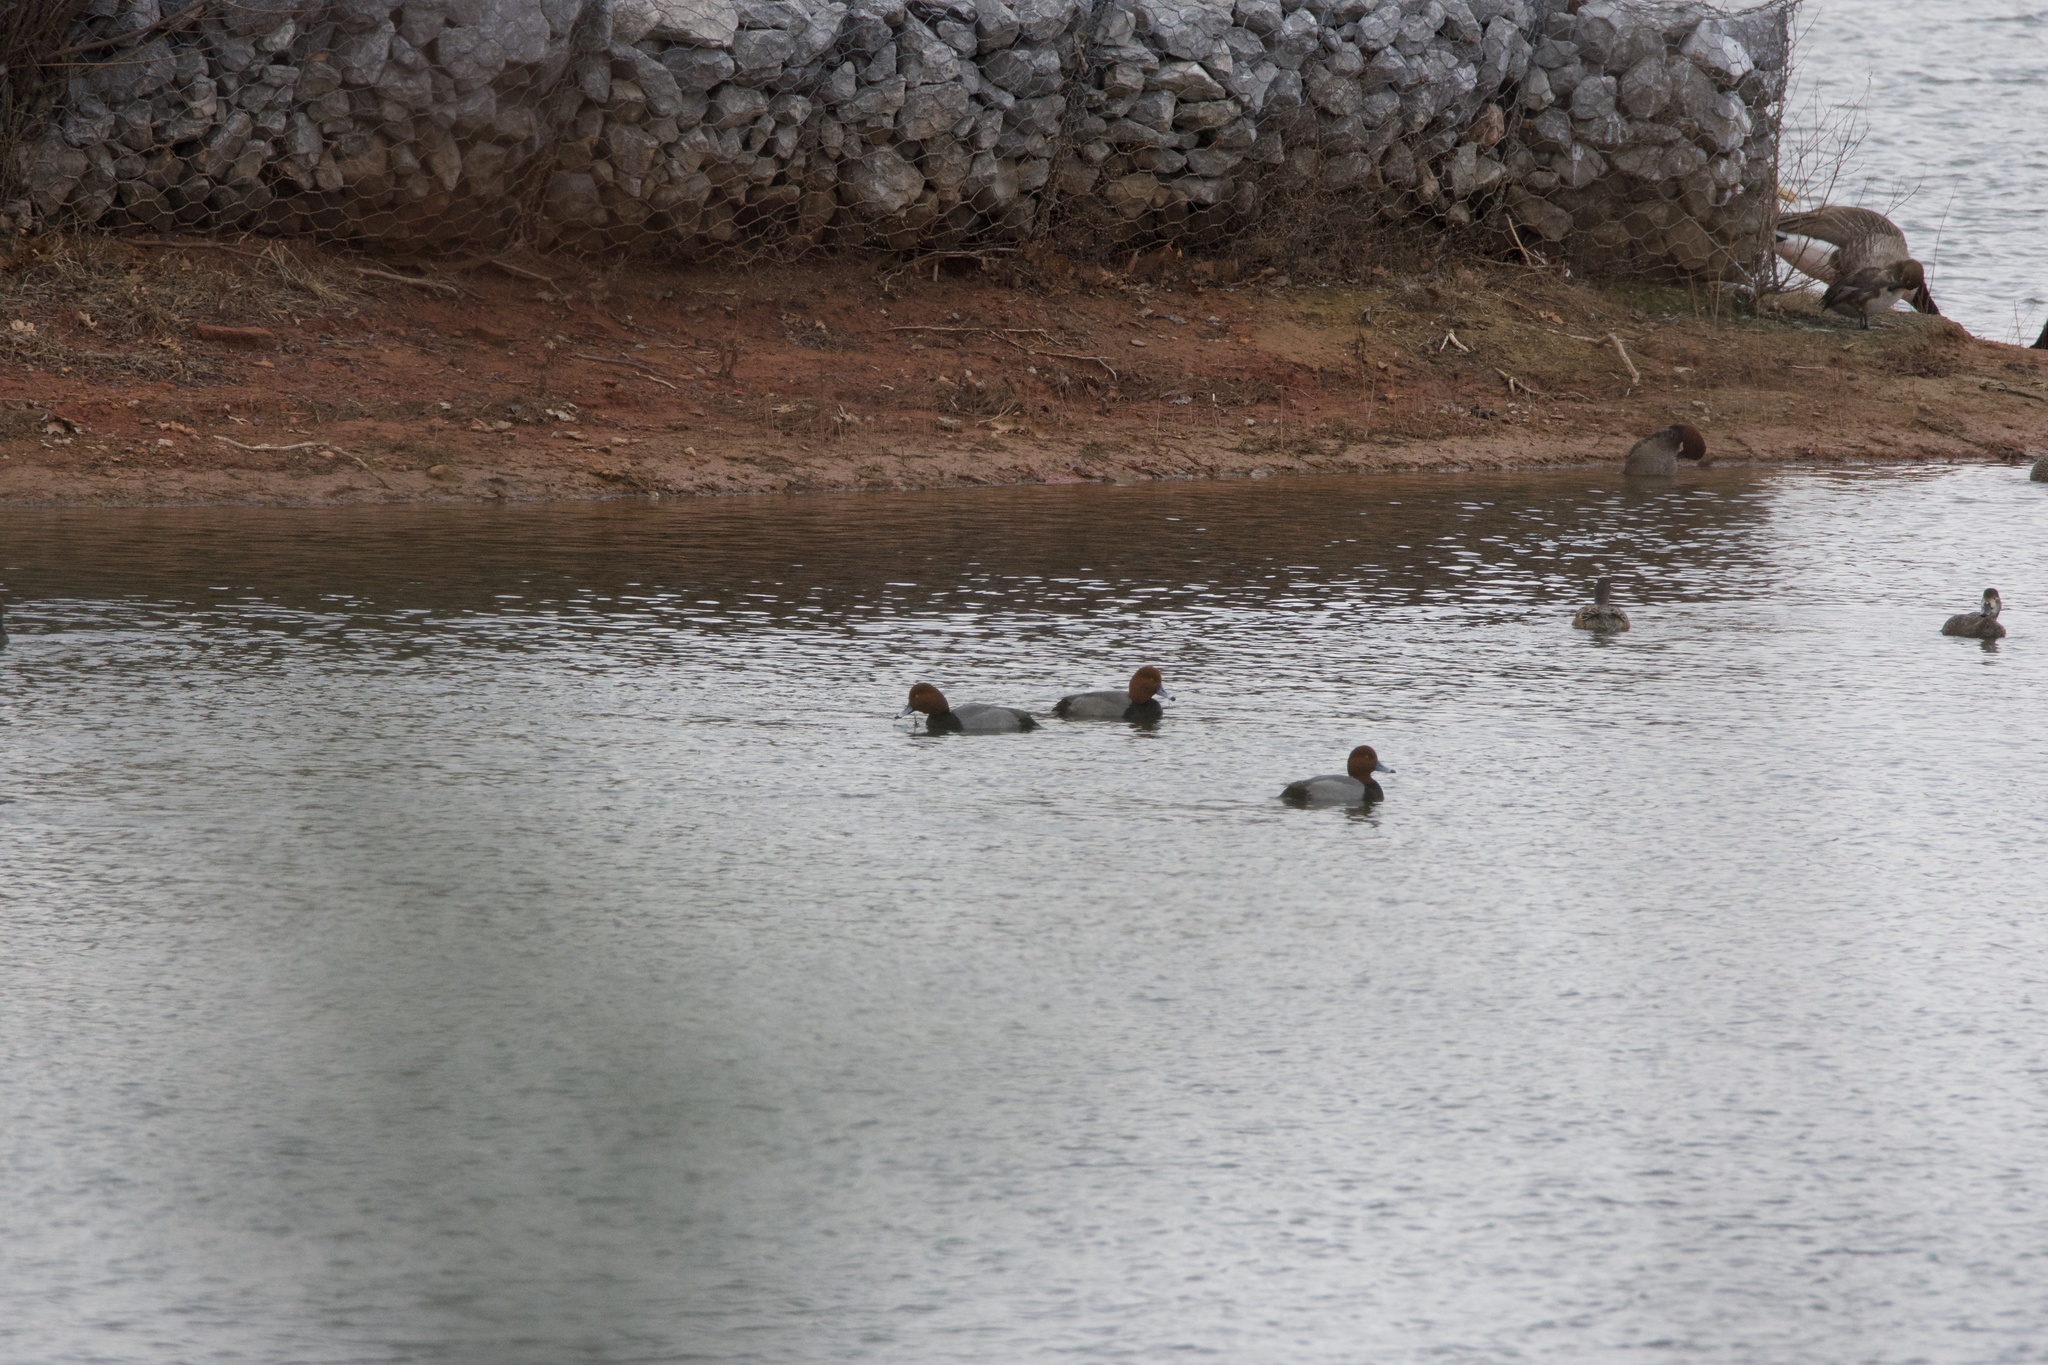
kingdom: Animalia
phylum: Chordata
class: Aves
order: Anseriformes
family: Anatidae
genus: Aythya
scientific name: Aythya americana
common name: Redhead
